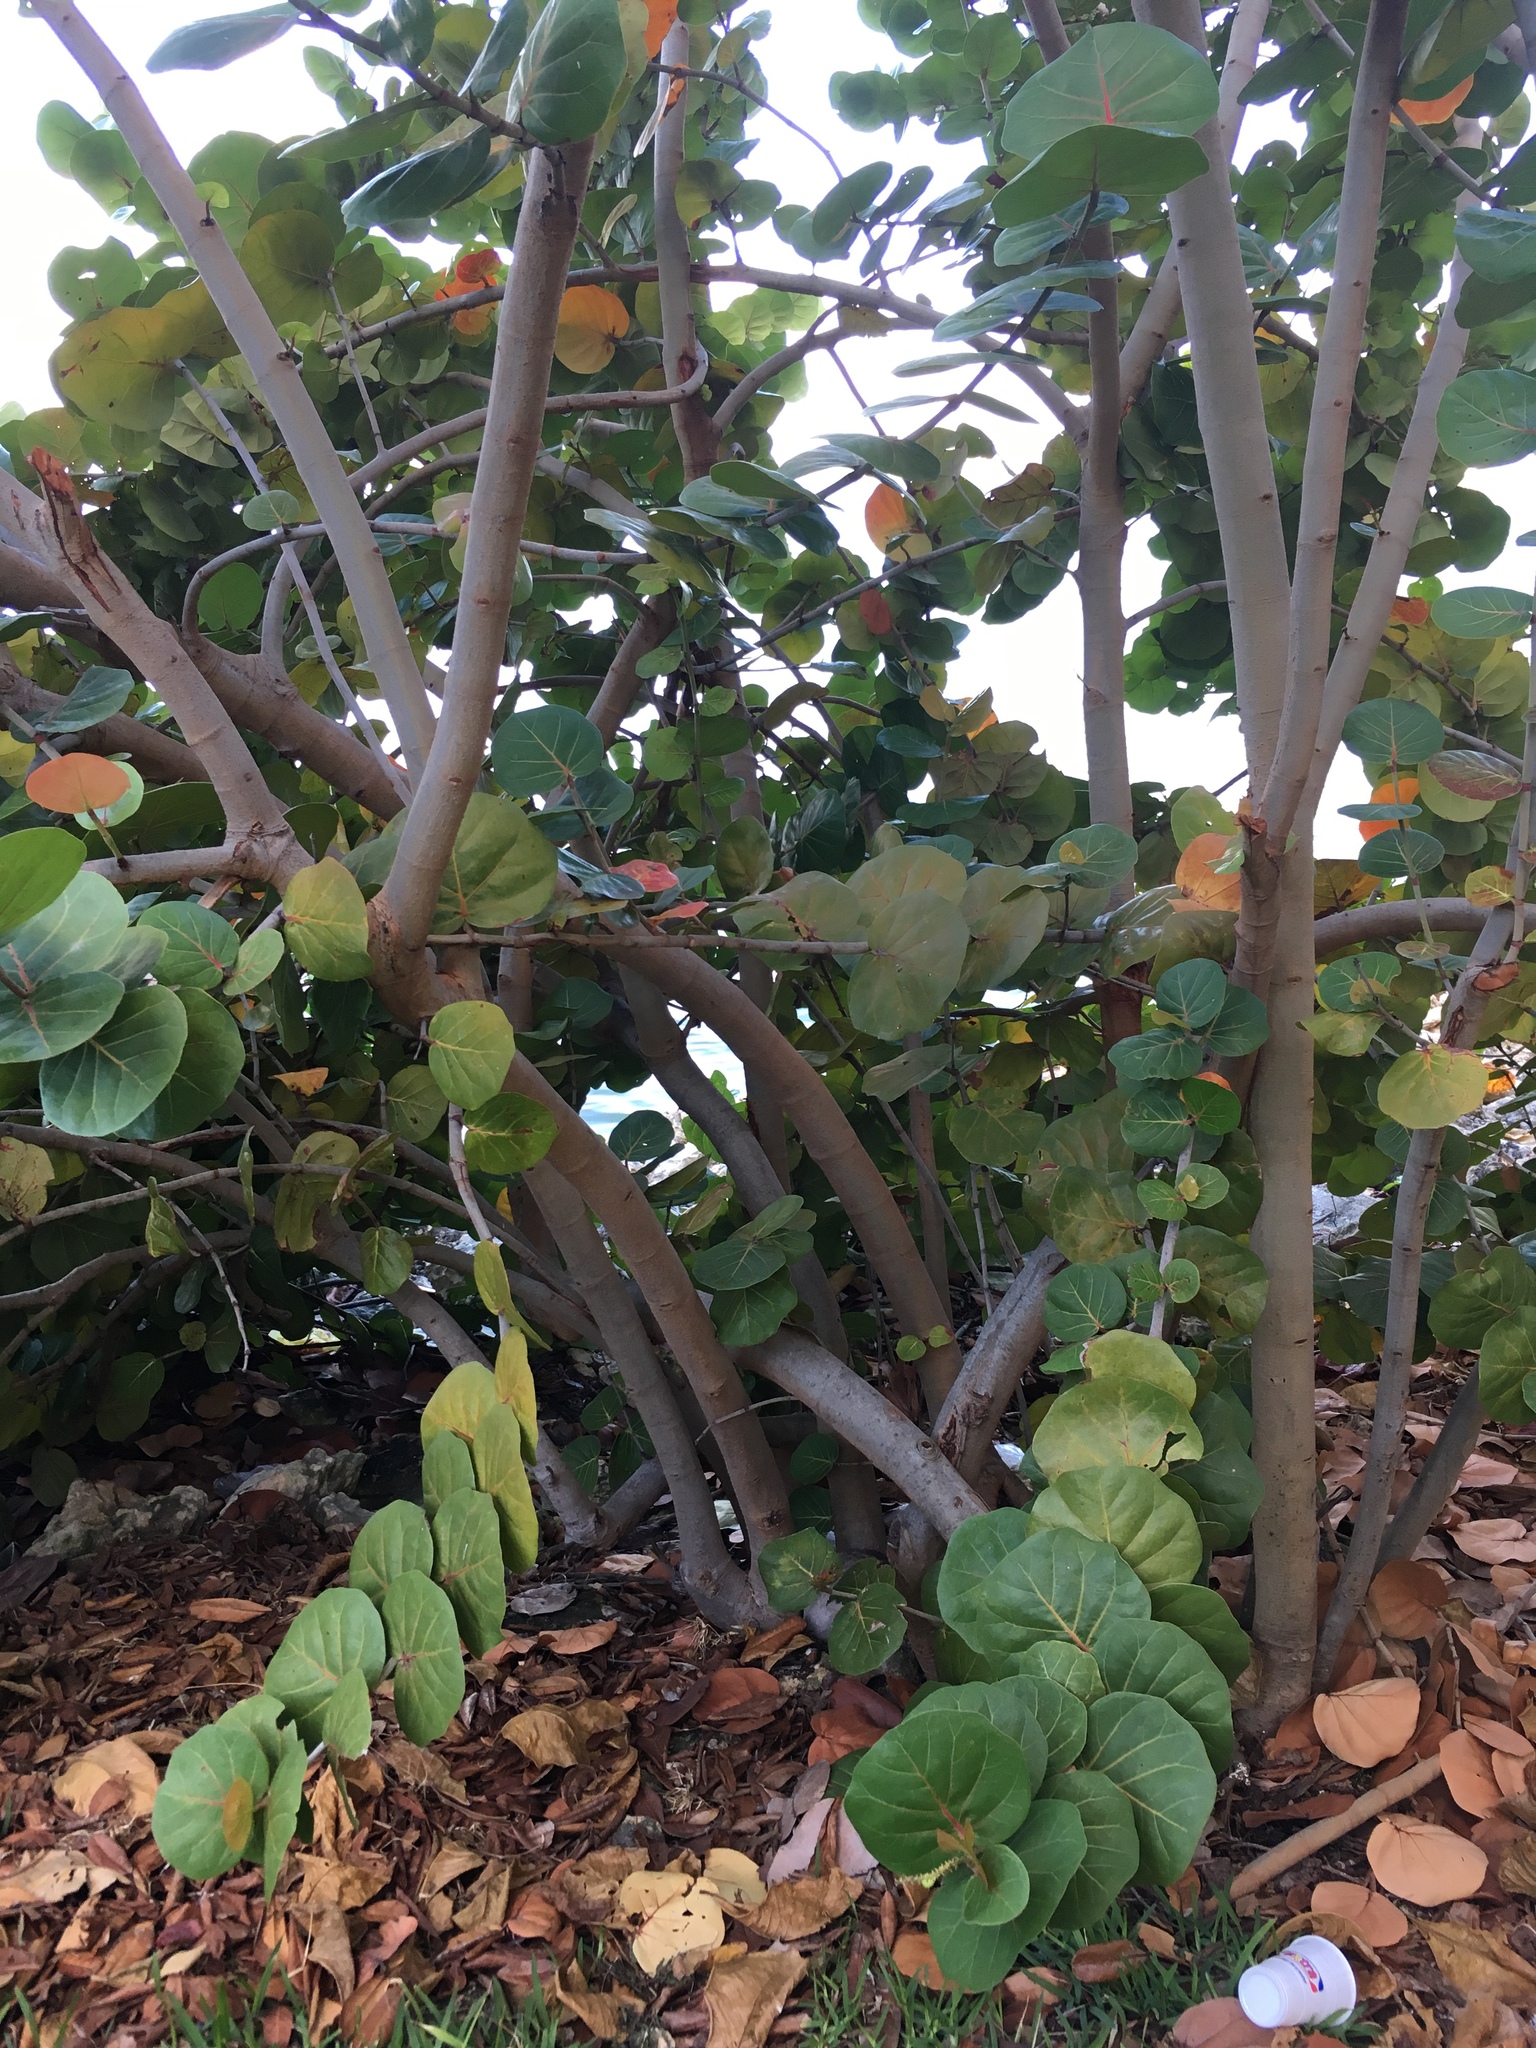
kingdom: Plantae
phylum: Tracheophyta
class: Magnoliopsida
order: Caryophyllales
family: Polygonaceae
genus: Coccoloba
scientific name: Coccoloba uvifera
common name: Seagrape
